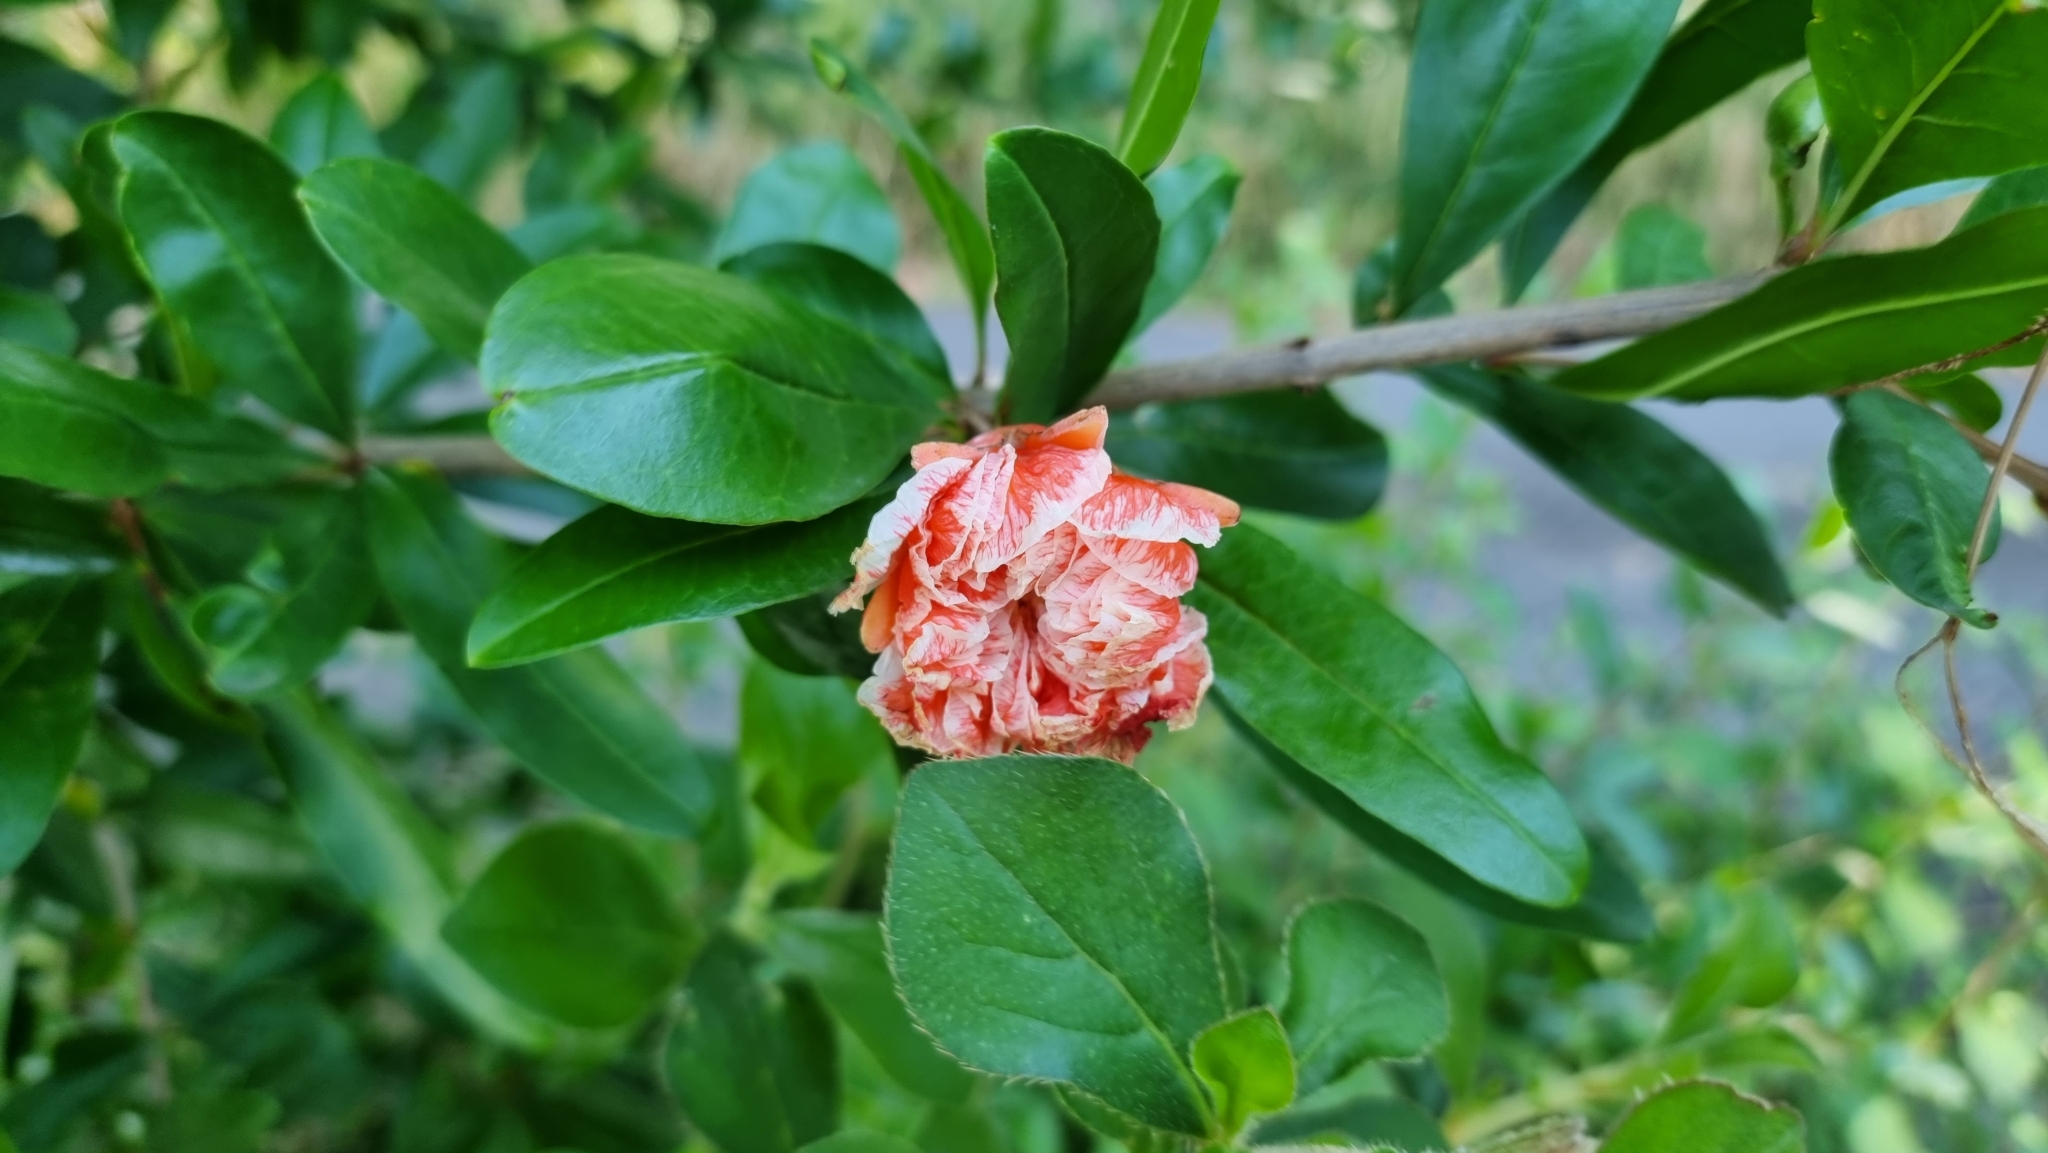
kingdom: Plantae
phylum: Tracheophyta
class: Magnoliopsida
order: Myrtales
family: Lythraceae
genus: Punica
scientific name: Punica granatum
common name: Pomegranate
